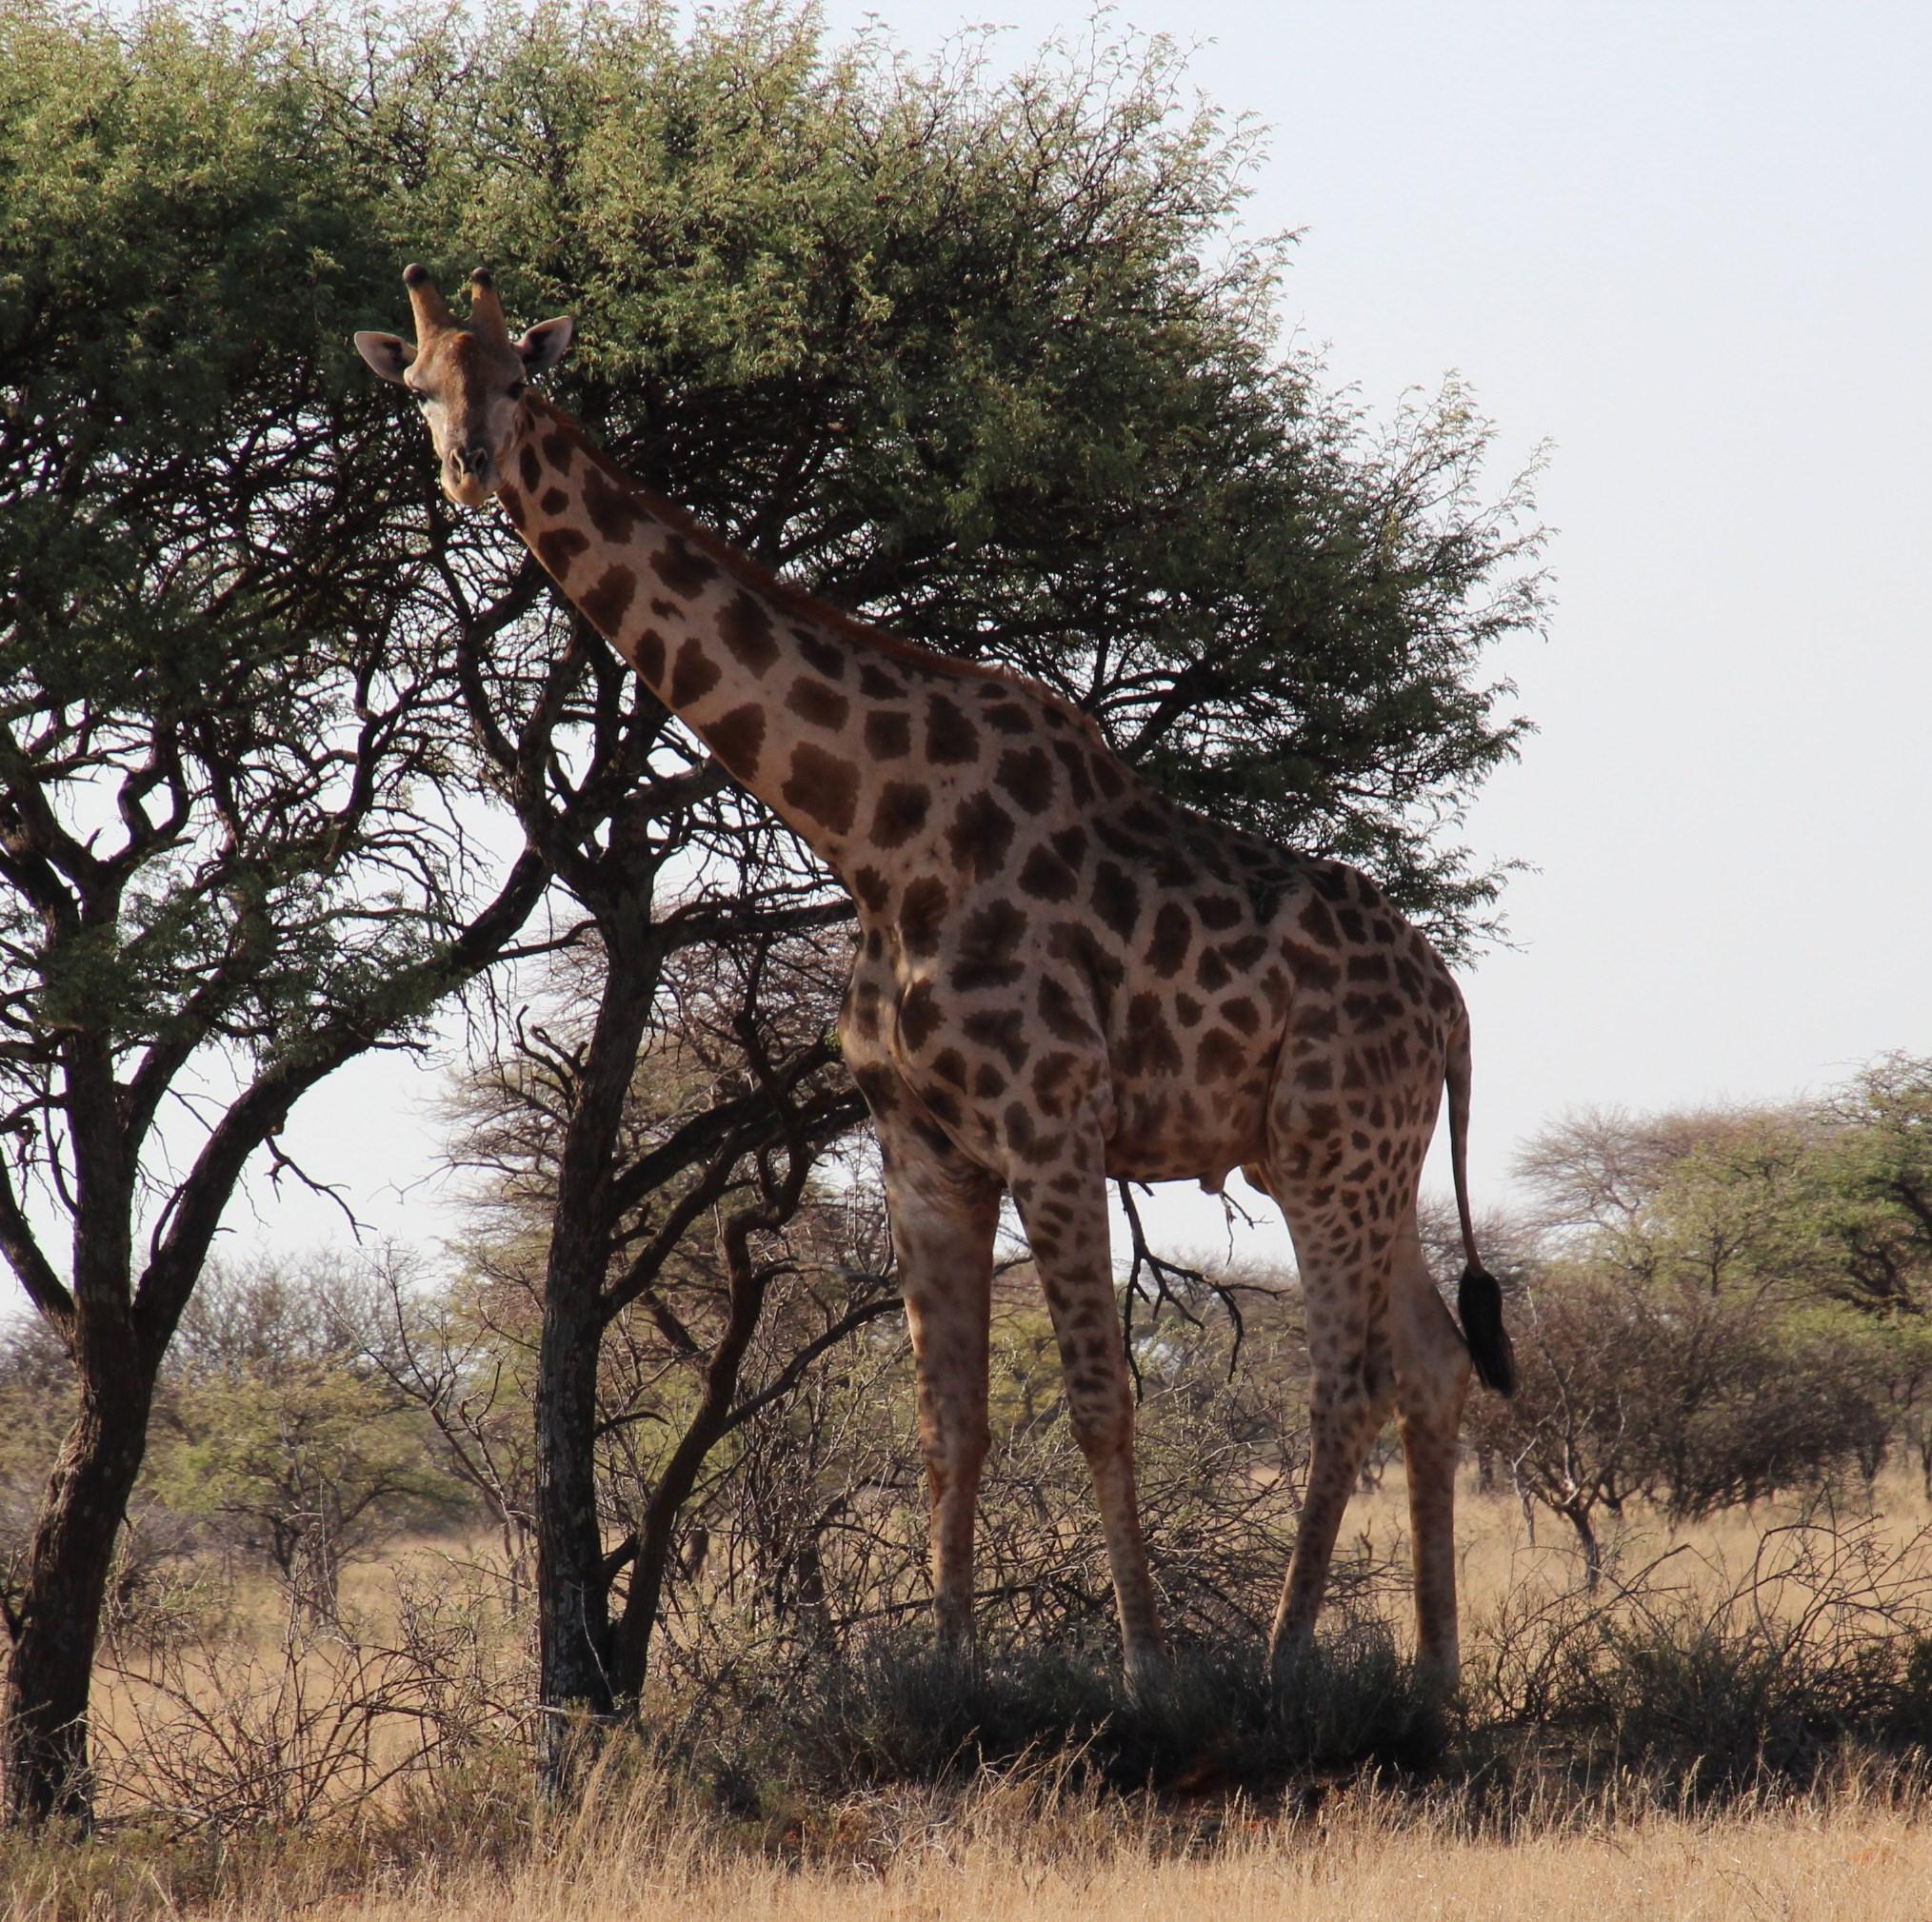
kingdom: Animalia
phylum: Chordata
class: Mammalia
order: Artiodactyla
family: Giraffidae
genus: Giraffa
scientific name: Giraffa giraffa
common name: Southern giraffe
